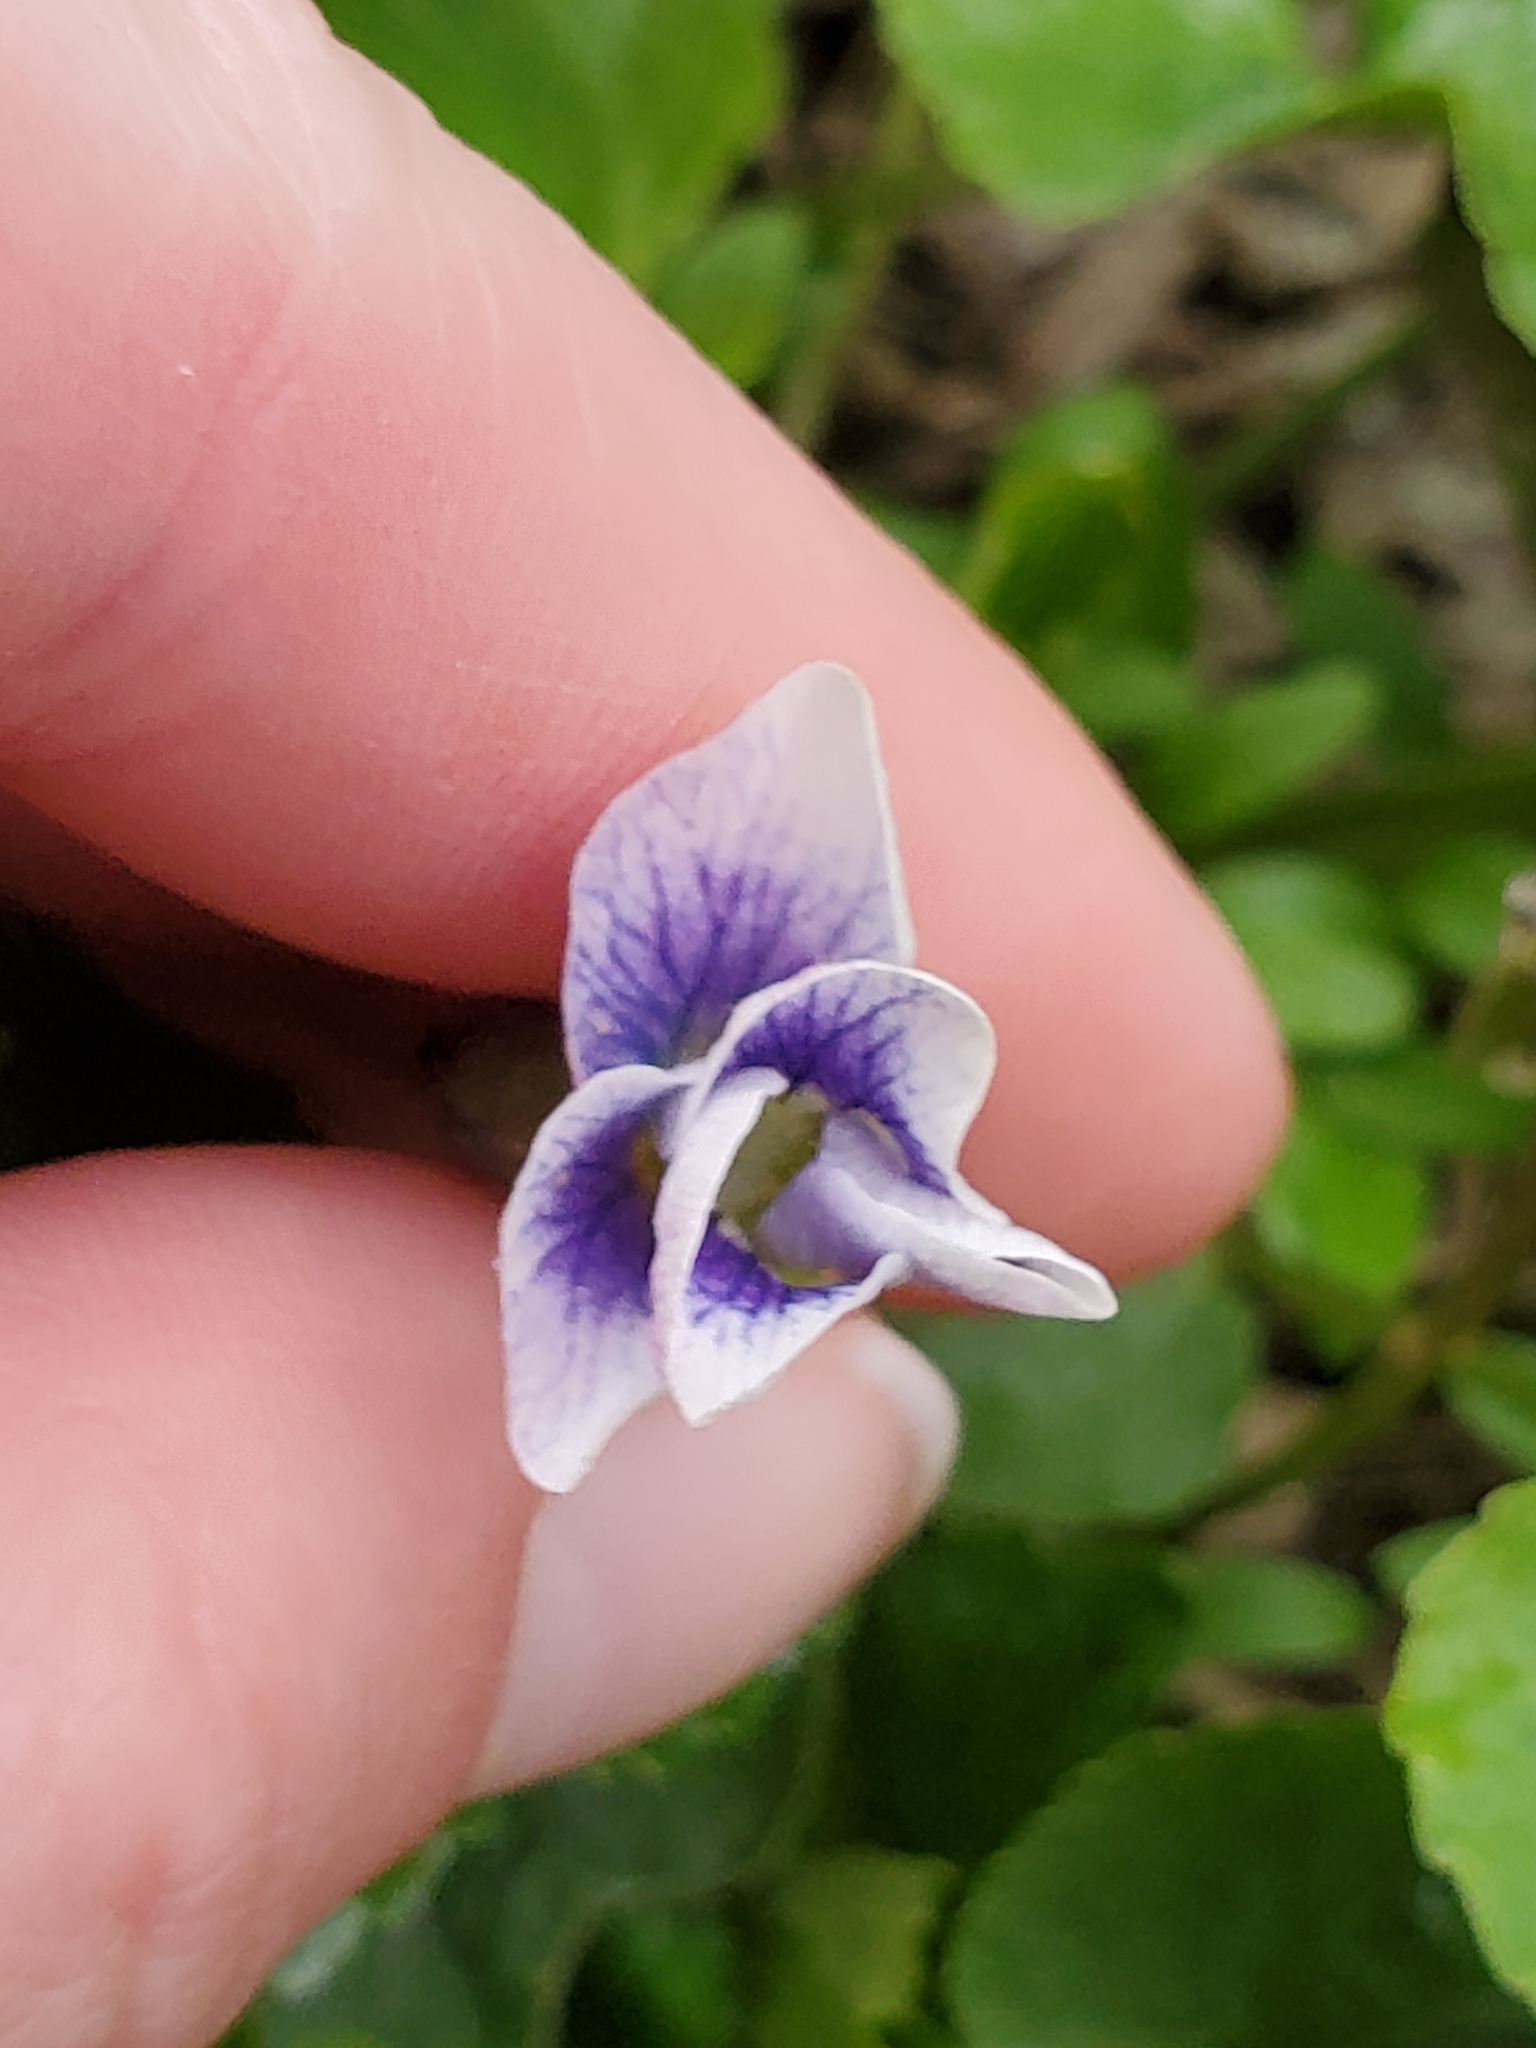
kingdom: Plantae
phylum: Tracheophyta
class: Magnoliopsida
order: Malpighiales
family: Violaceae
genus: Viola
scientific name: Viola sororia
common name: Dooryard violet
